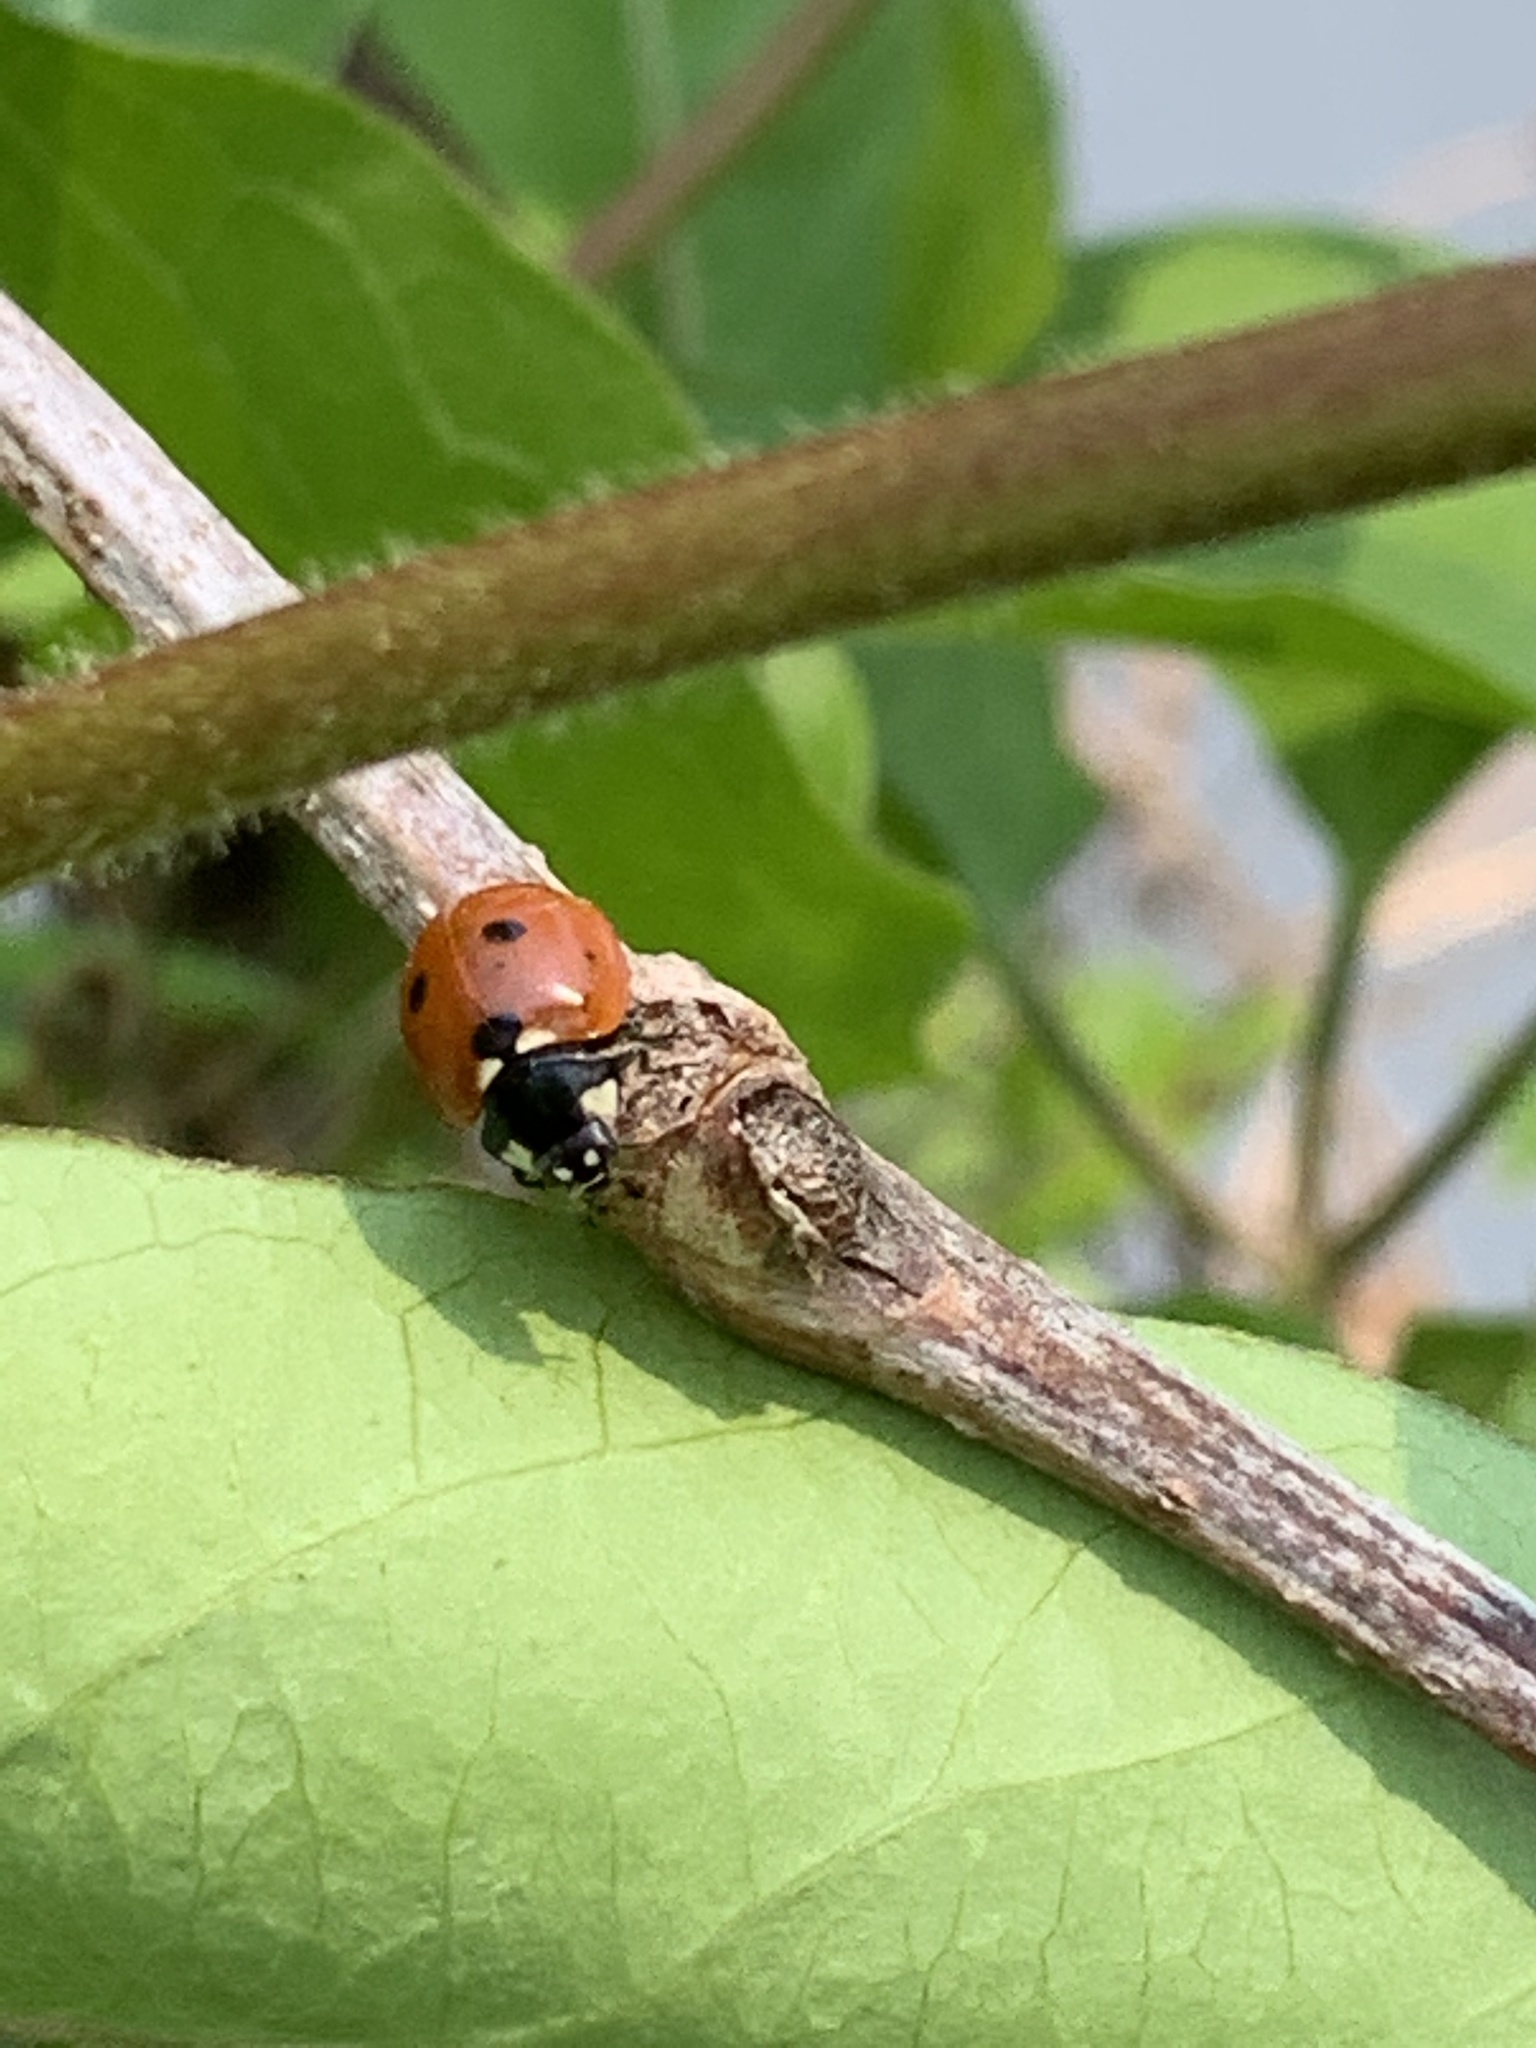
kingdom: Animalia
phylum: Arthropoda
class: Insecta
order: Coleoptera
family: Coccinellidae
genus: Coccinella
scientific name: Coccinella septempunctata
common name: Sevenspotted lady beetle
